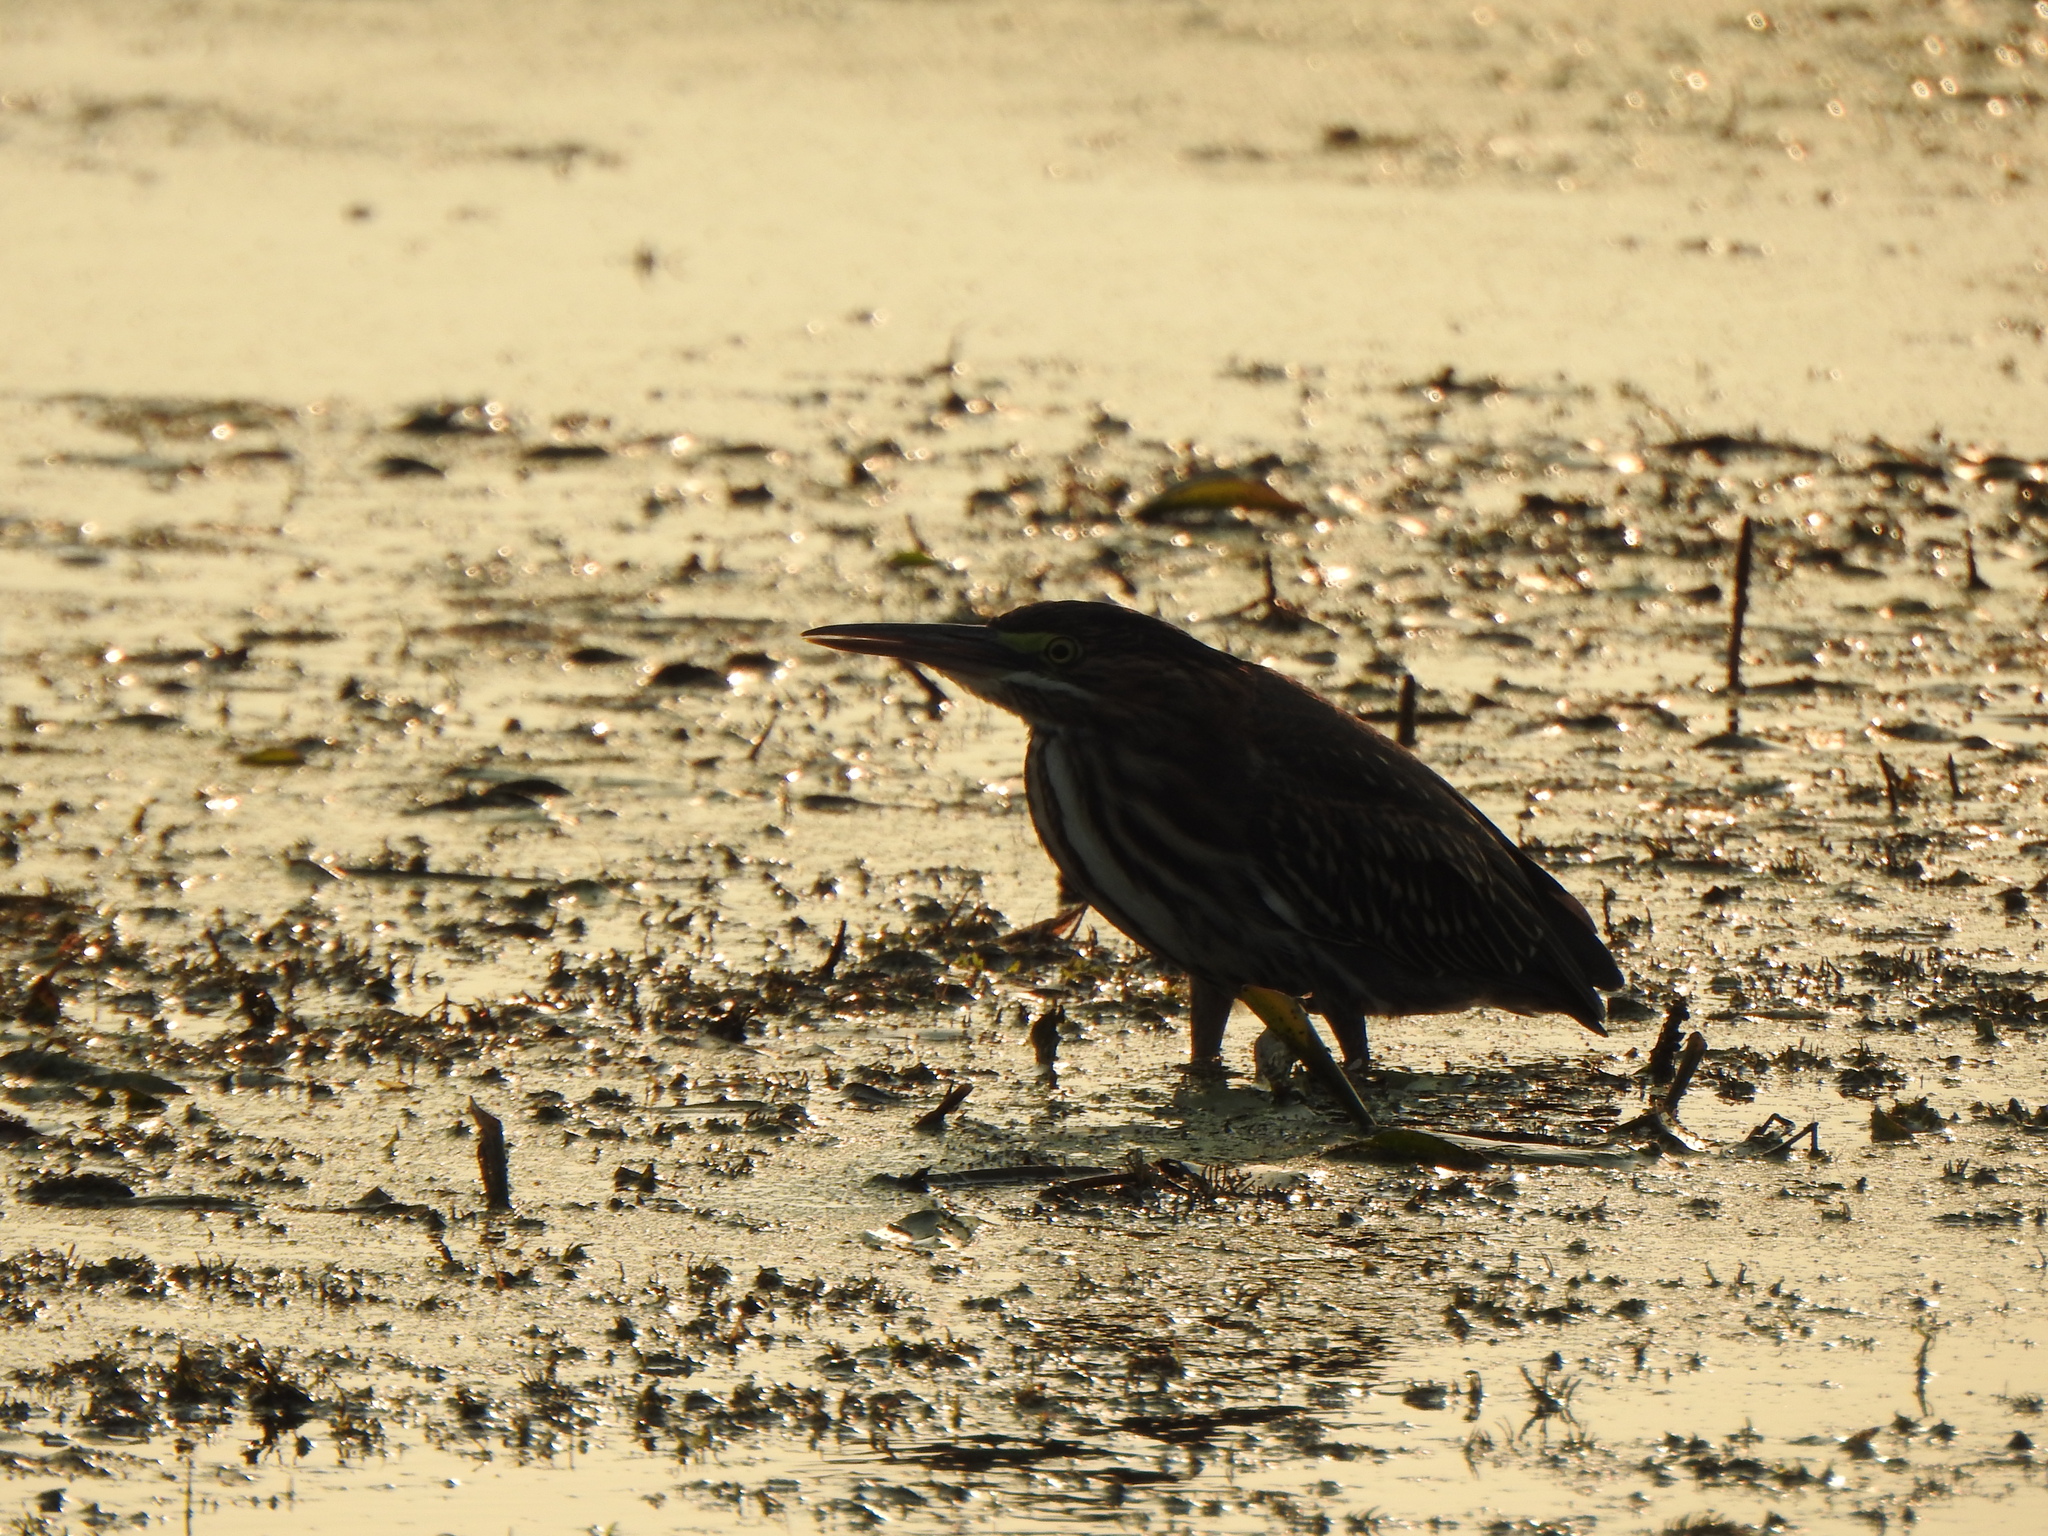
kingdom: Animalia
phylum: Chordata
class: Aves
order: Pelecaniformes
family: Ardeidae
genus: Butorides
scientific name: Butorides virescens
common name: Green heron
